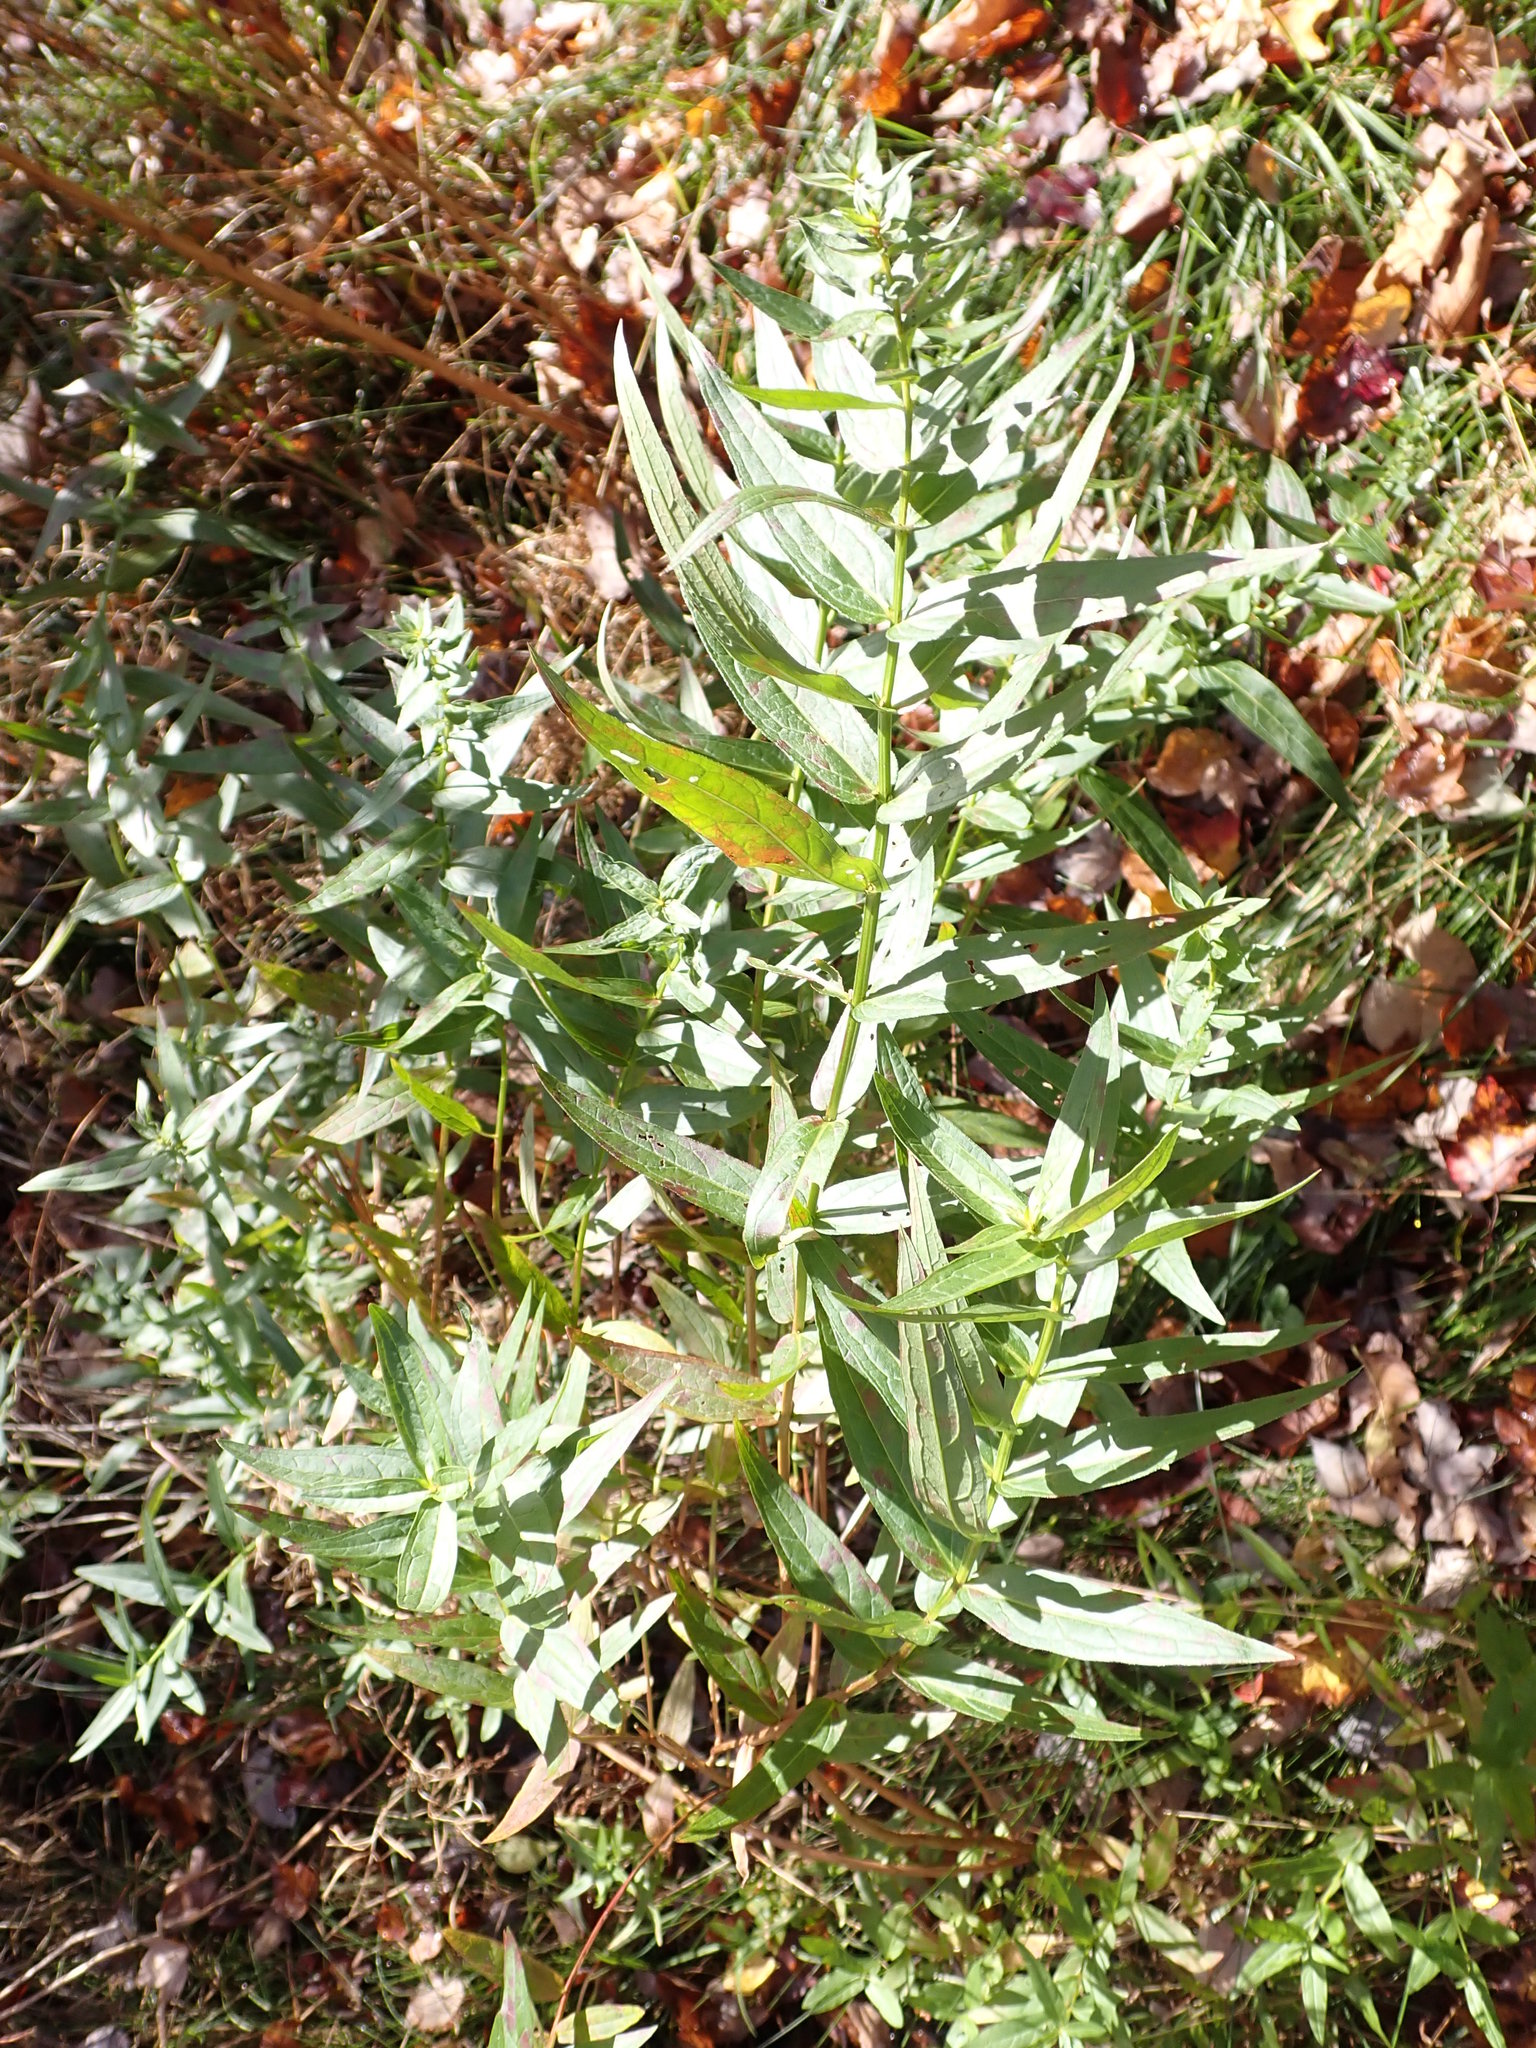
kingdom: Plantae
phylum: Tracheophyta
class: Magnoliopsida
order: Myrtales
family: Lythraceae
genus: Lythrum
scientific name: Lythrum salicaria
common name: Purple loosestrife
